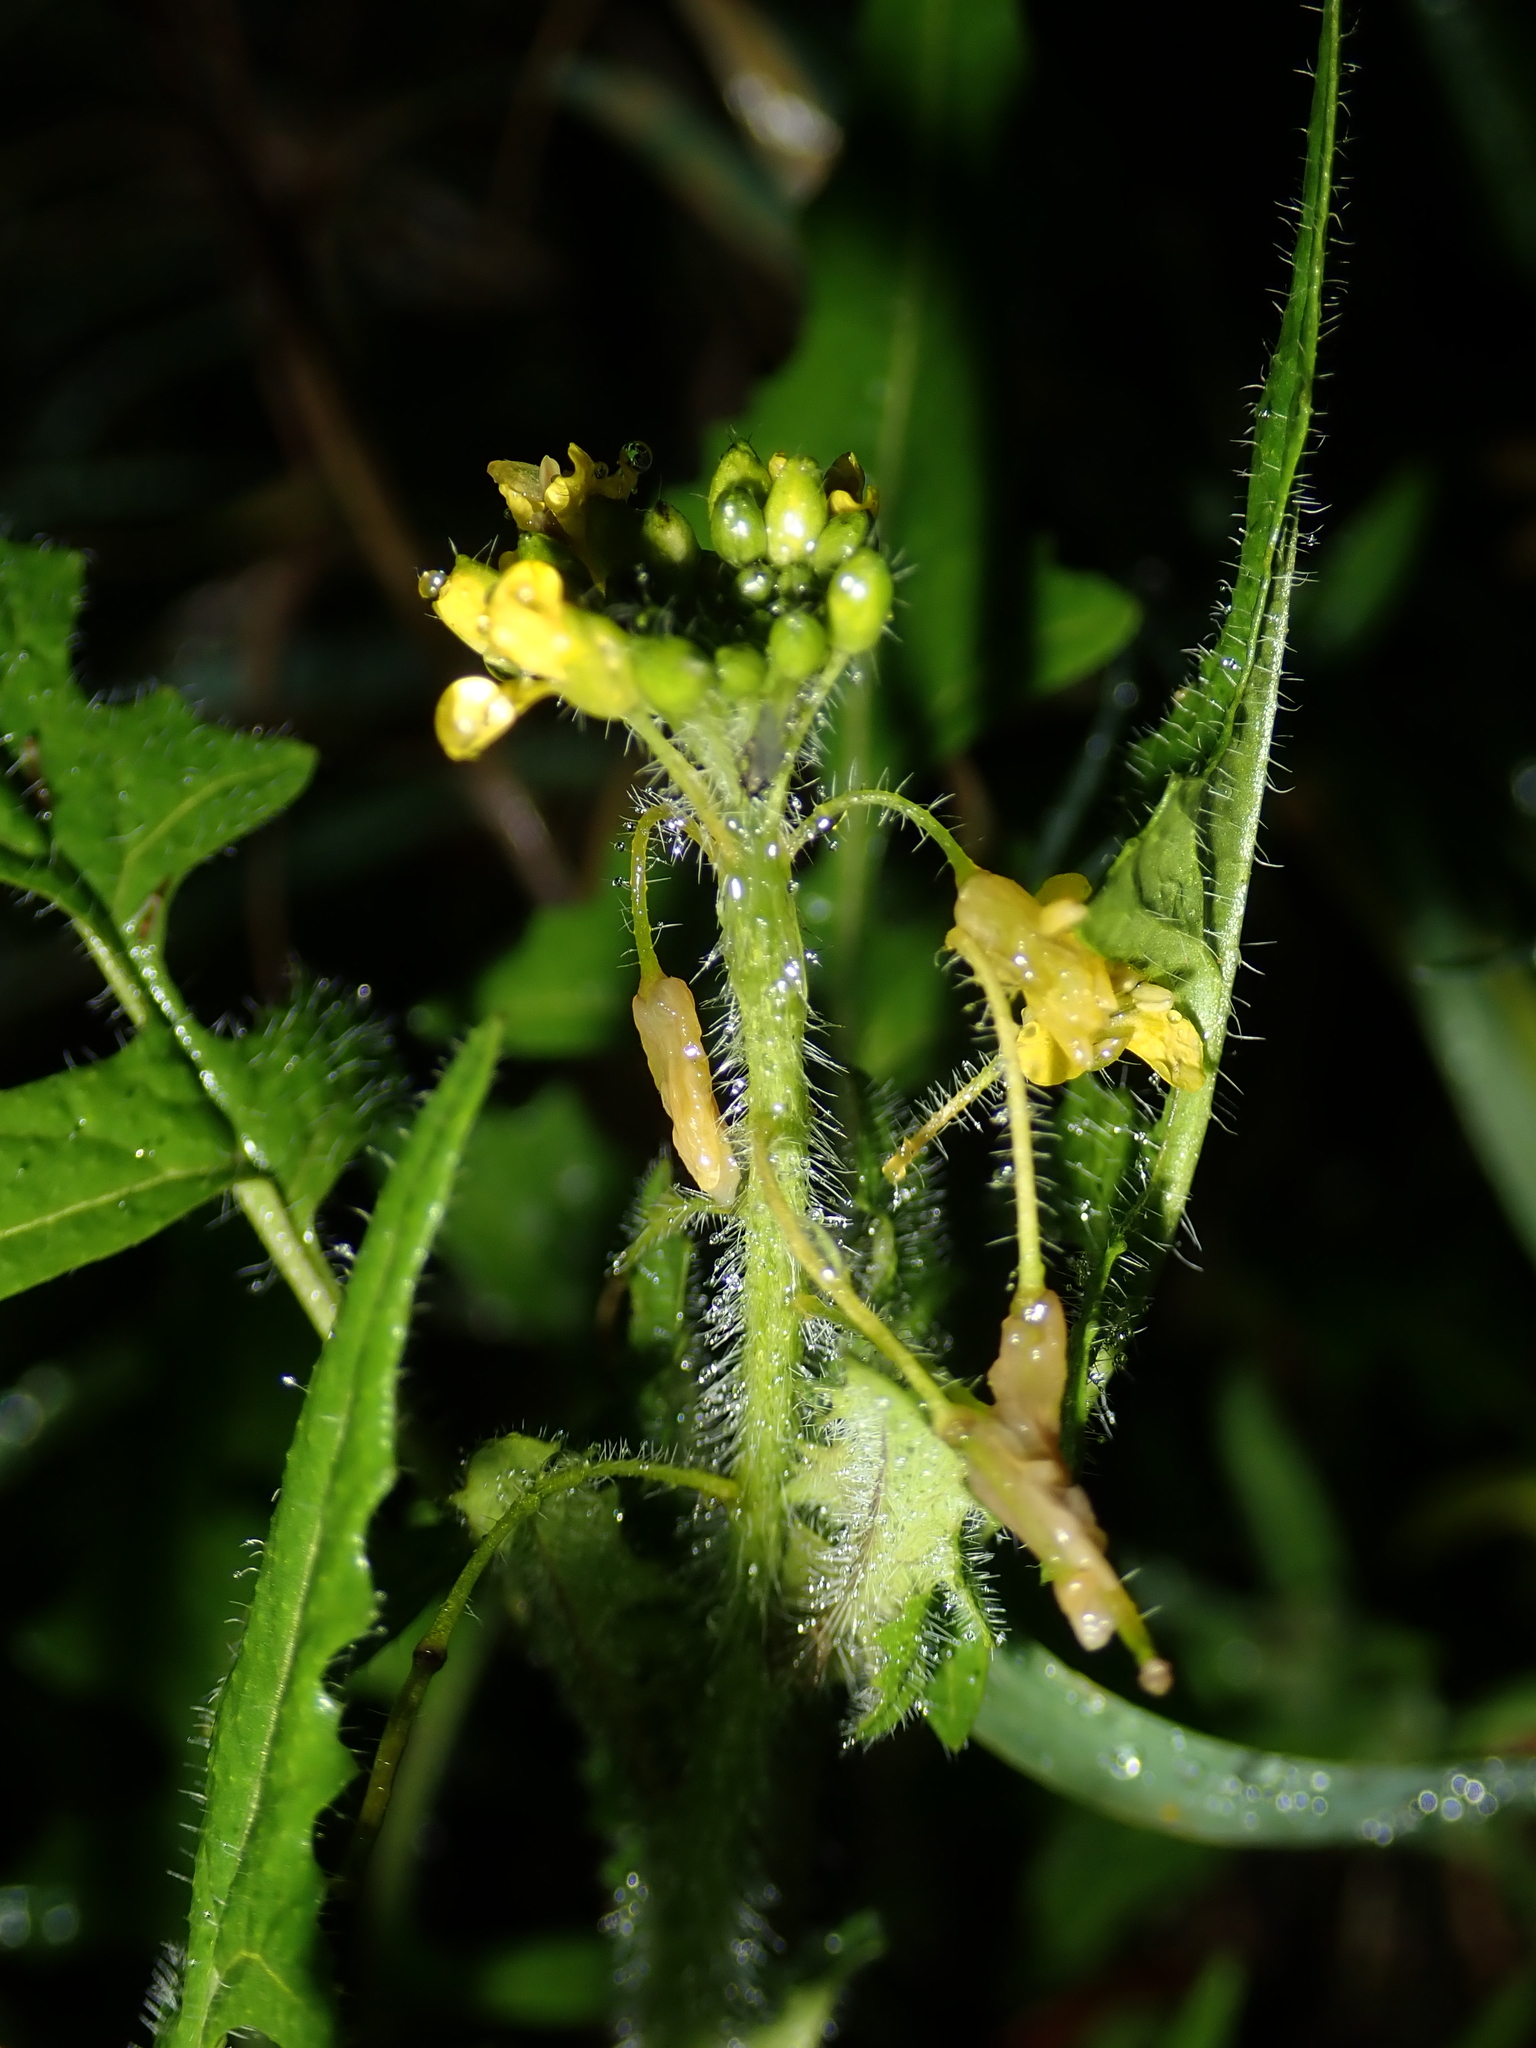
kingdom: Plantae
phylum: Tracheophyta
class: Magnoliopsida
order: Brassicales
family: Brassicaceae
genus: Sisymbrium
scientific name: Sisymbrium loeselii
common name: False london-rocket
